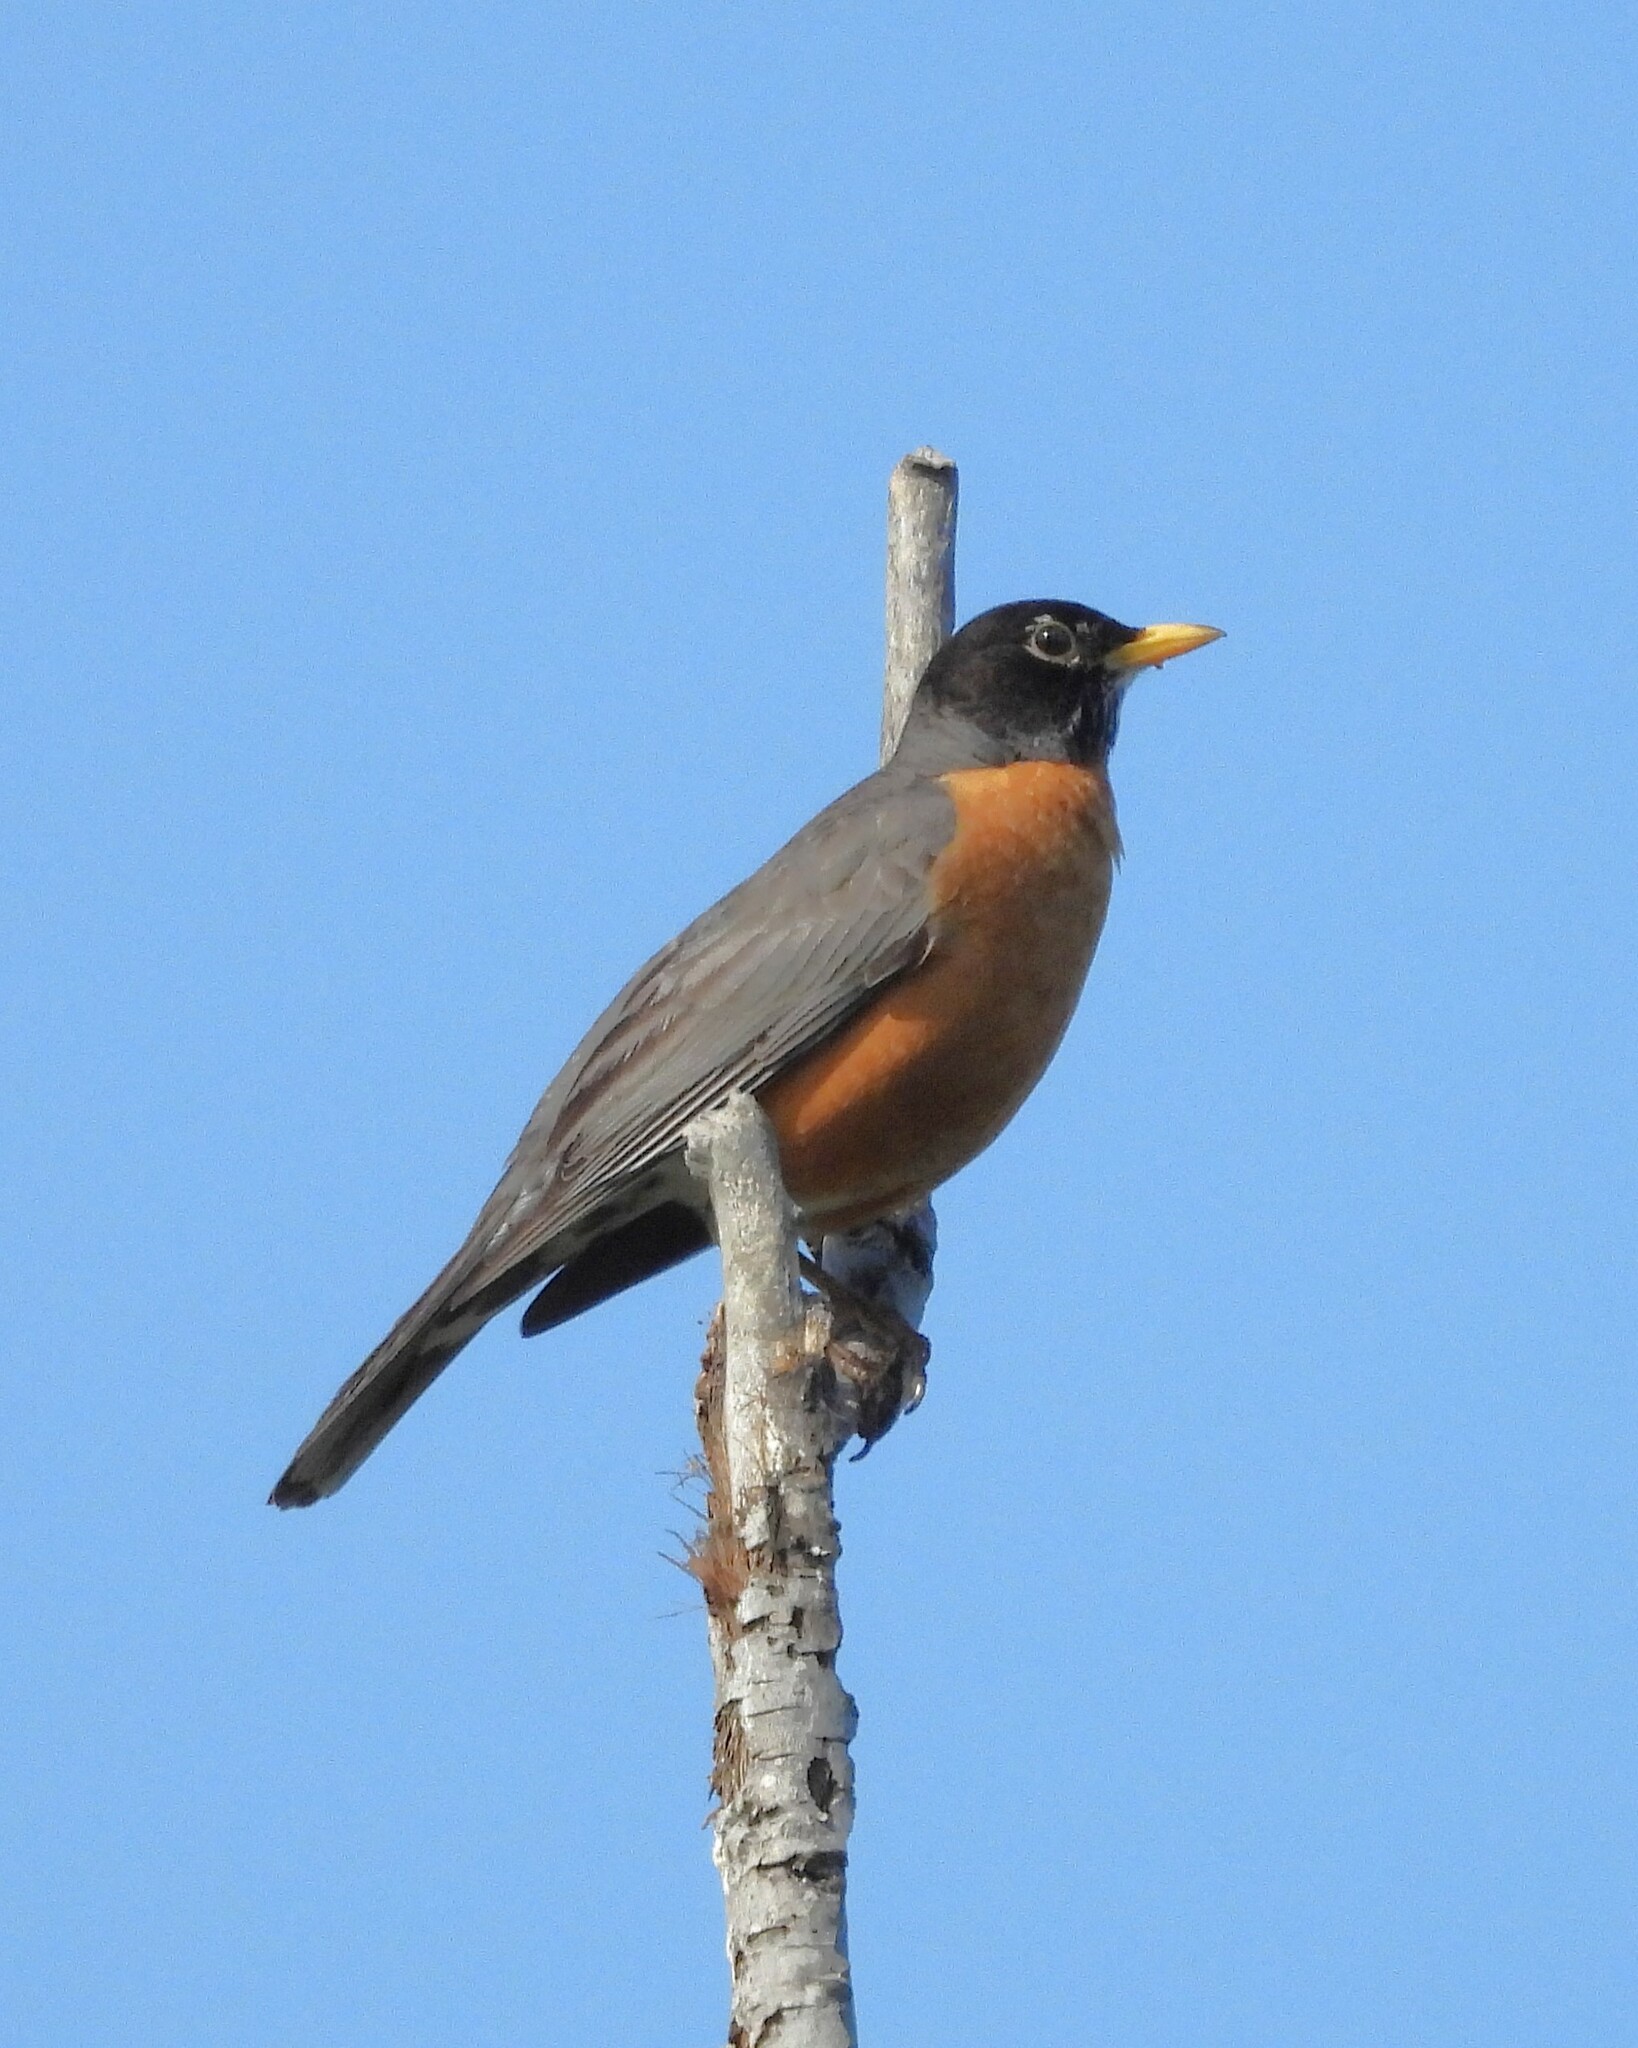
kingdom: Animalia
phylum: Chordata
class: Aves
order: Passeriformes
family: Turdidae
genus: Turdus
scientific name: Turdus migratorius
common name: American robin
